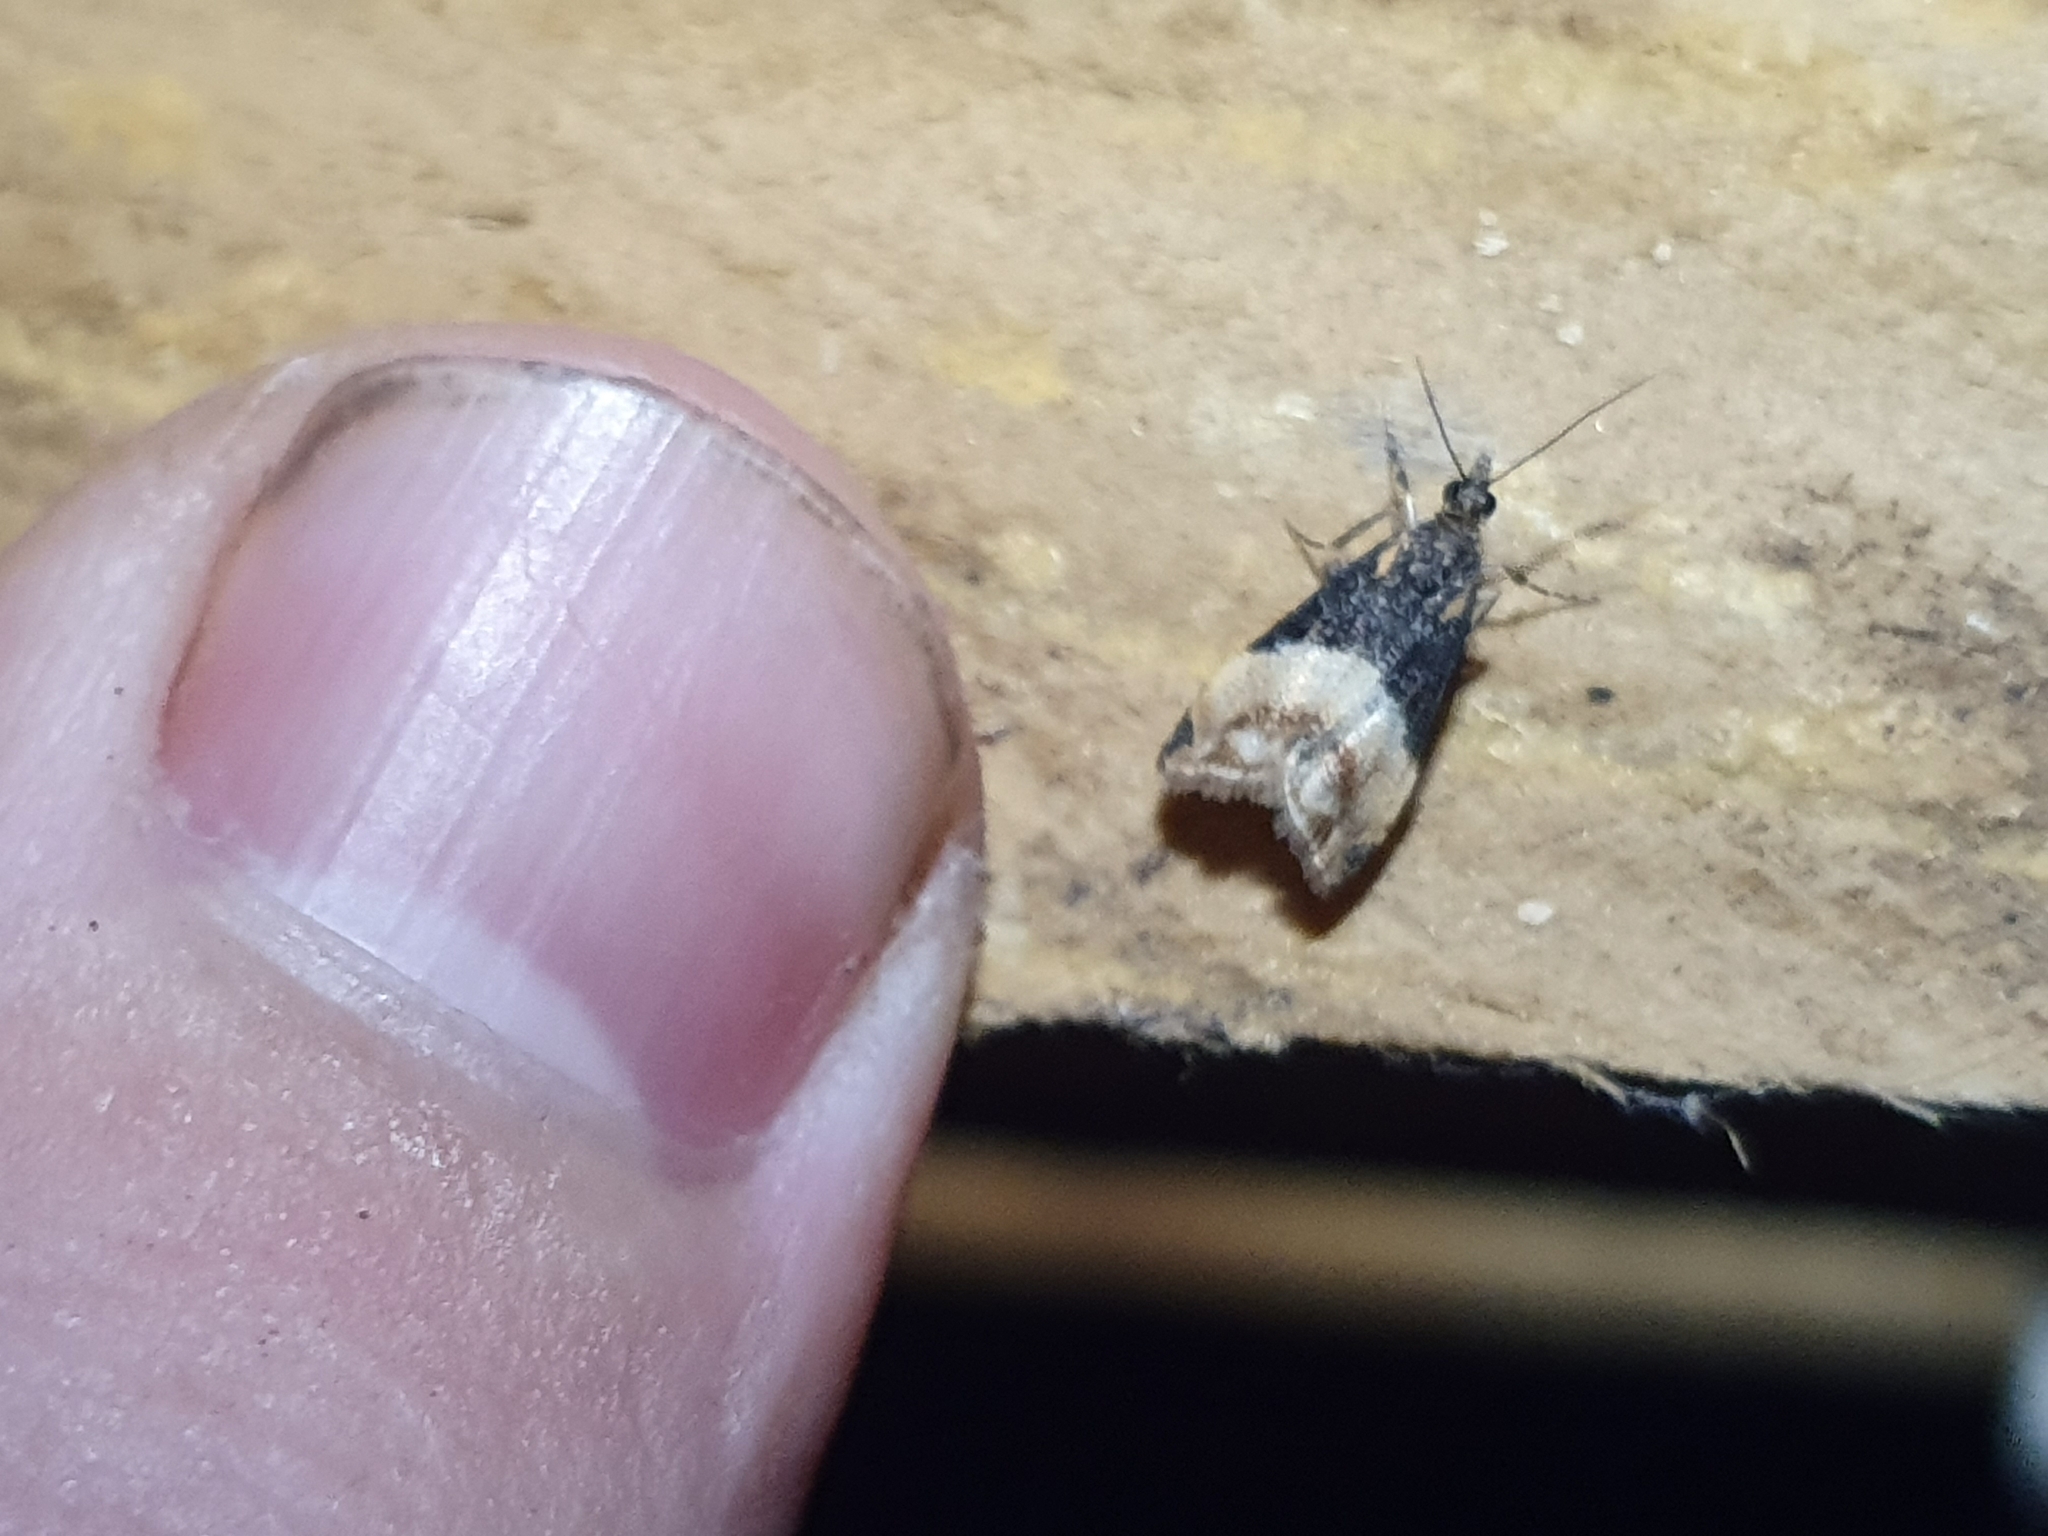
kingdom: Animalia
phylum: Arthropoda
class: Insecta
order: Lepidoptera
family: Crambidae
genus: Eudonia
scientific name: Eudonia chlamydota
